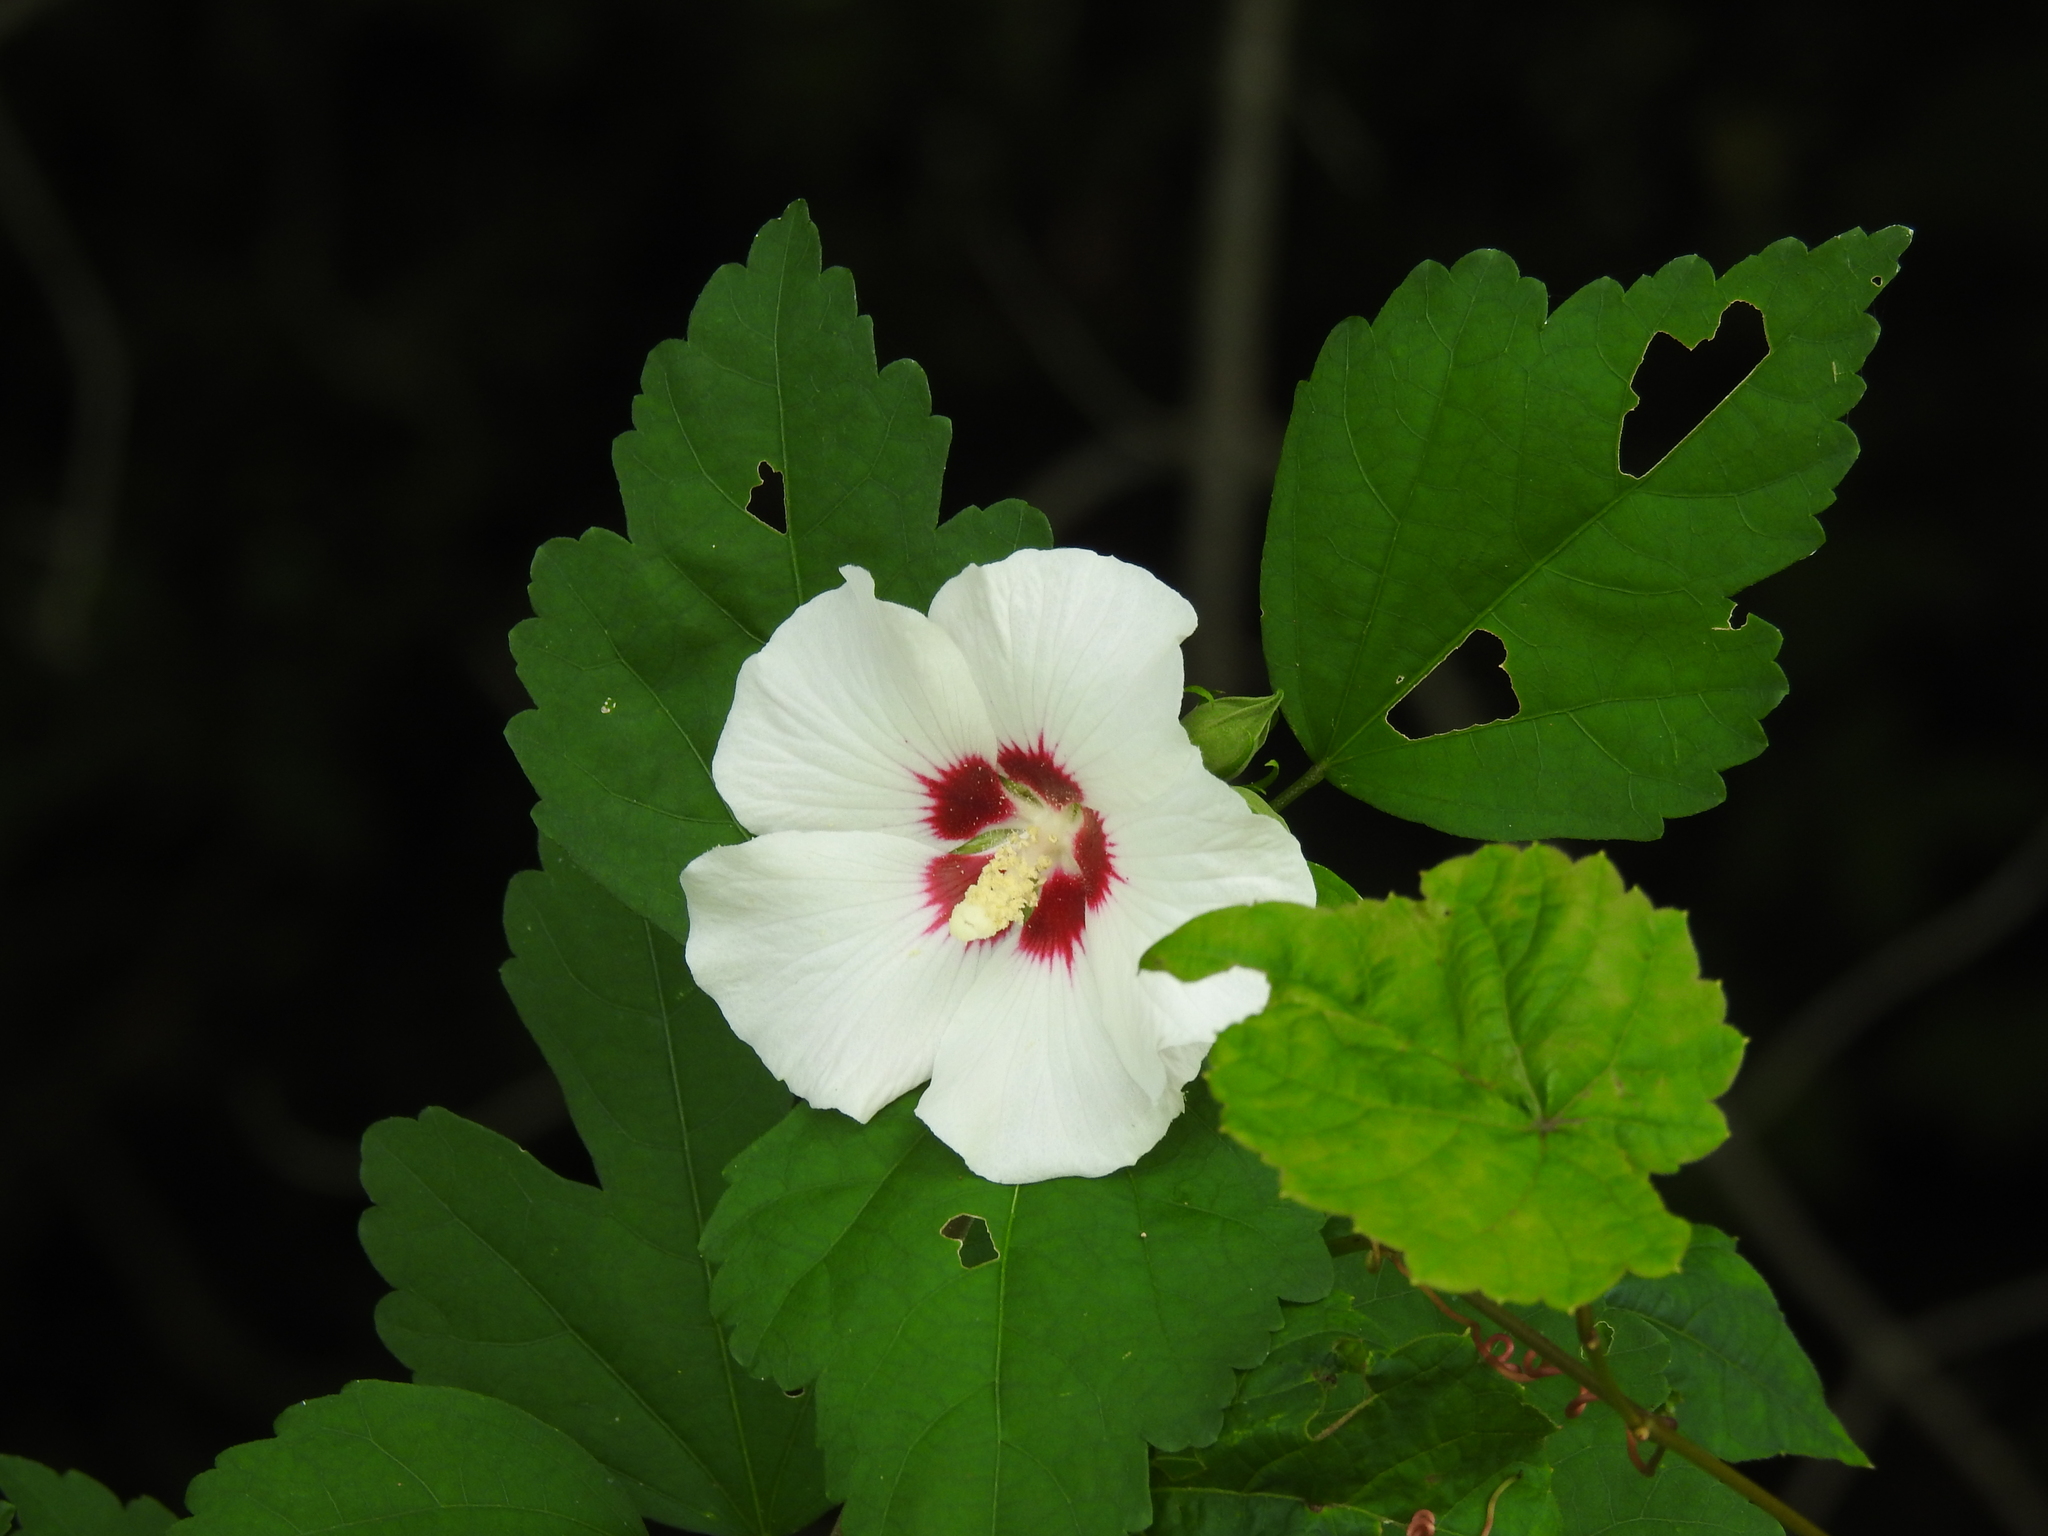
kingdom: Plantae
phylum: Tracheophyta
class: Magnoliopsida
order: Malvales
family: Malvaceae
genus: Hibiscus
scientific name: Hibiscus syriacus
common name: Syrian ketmia
